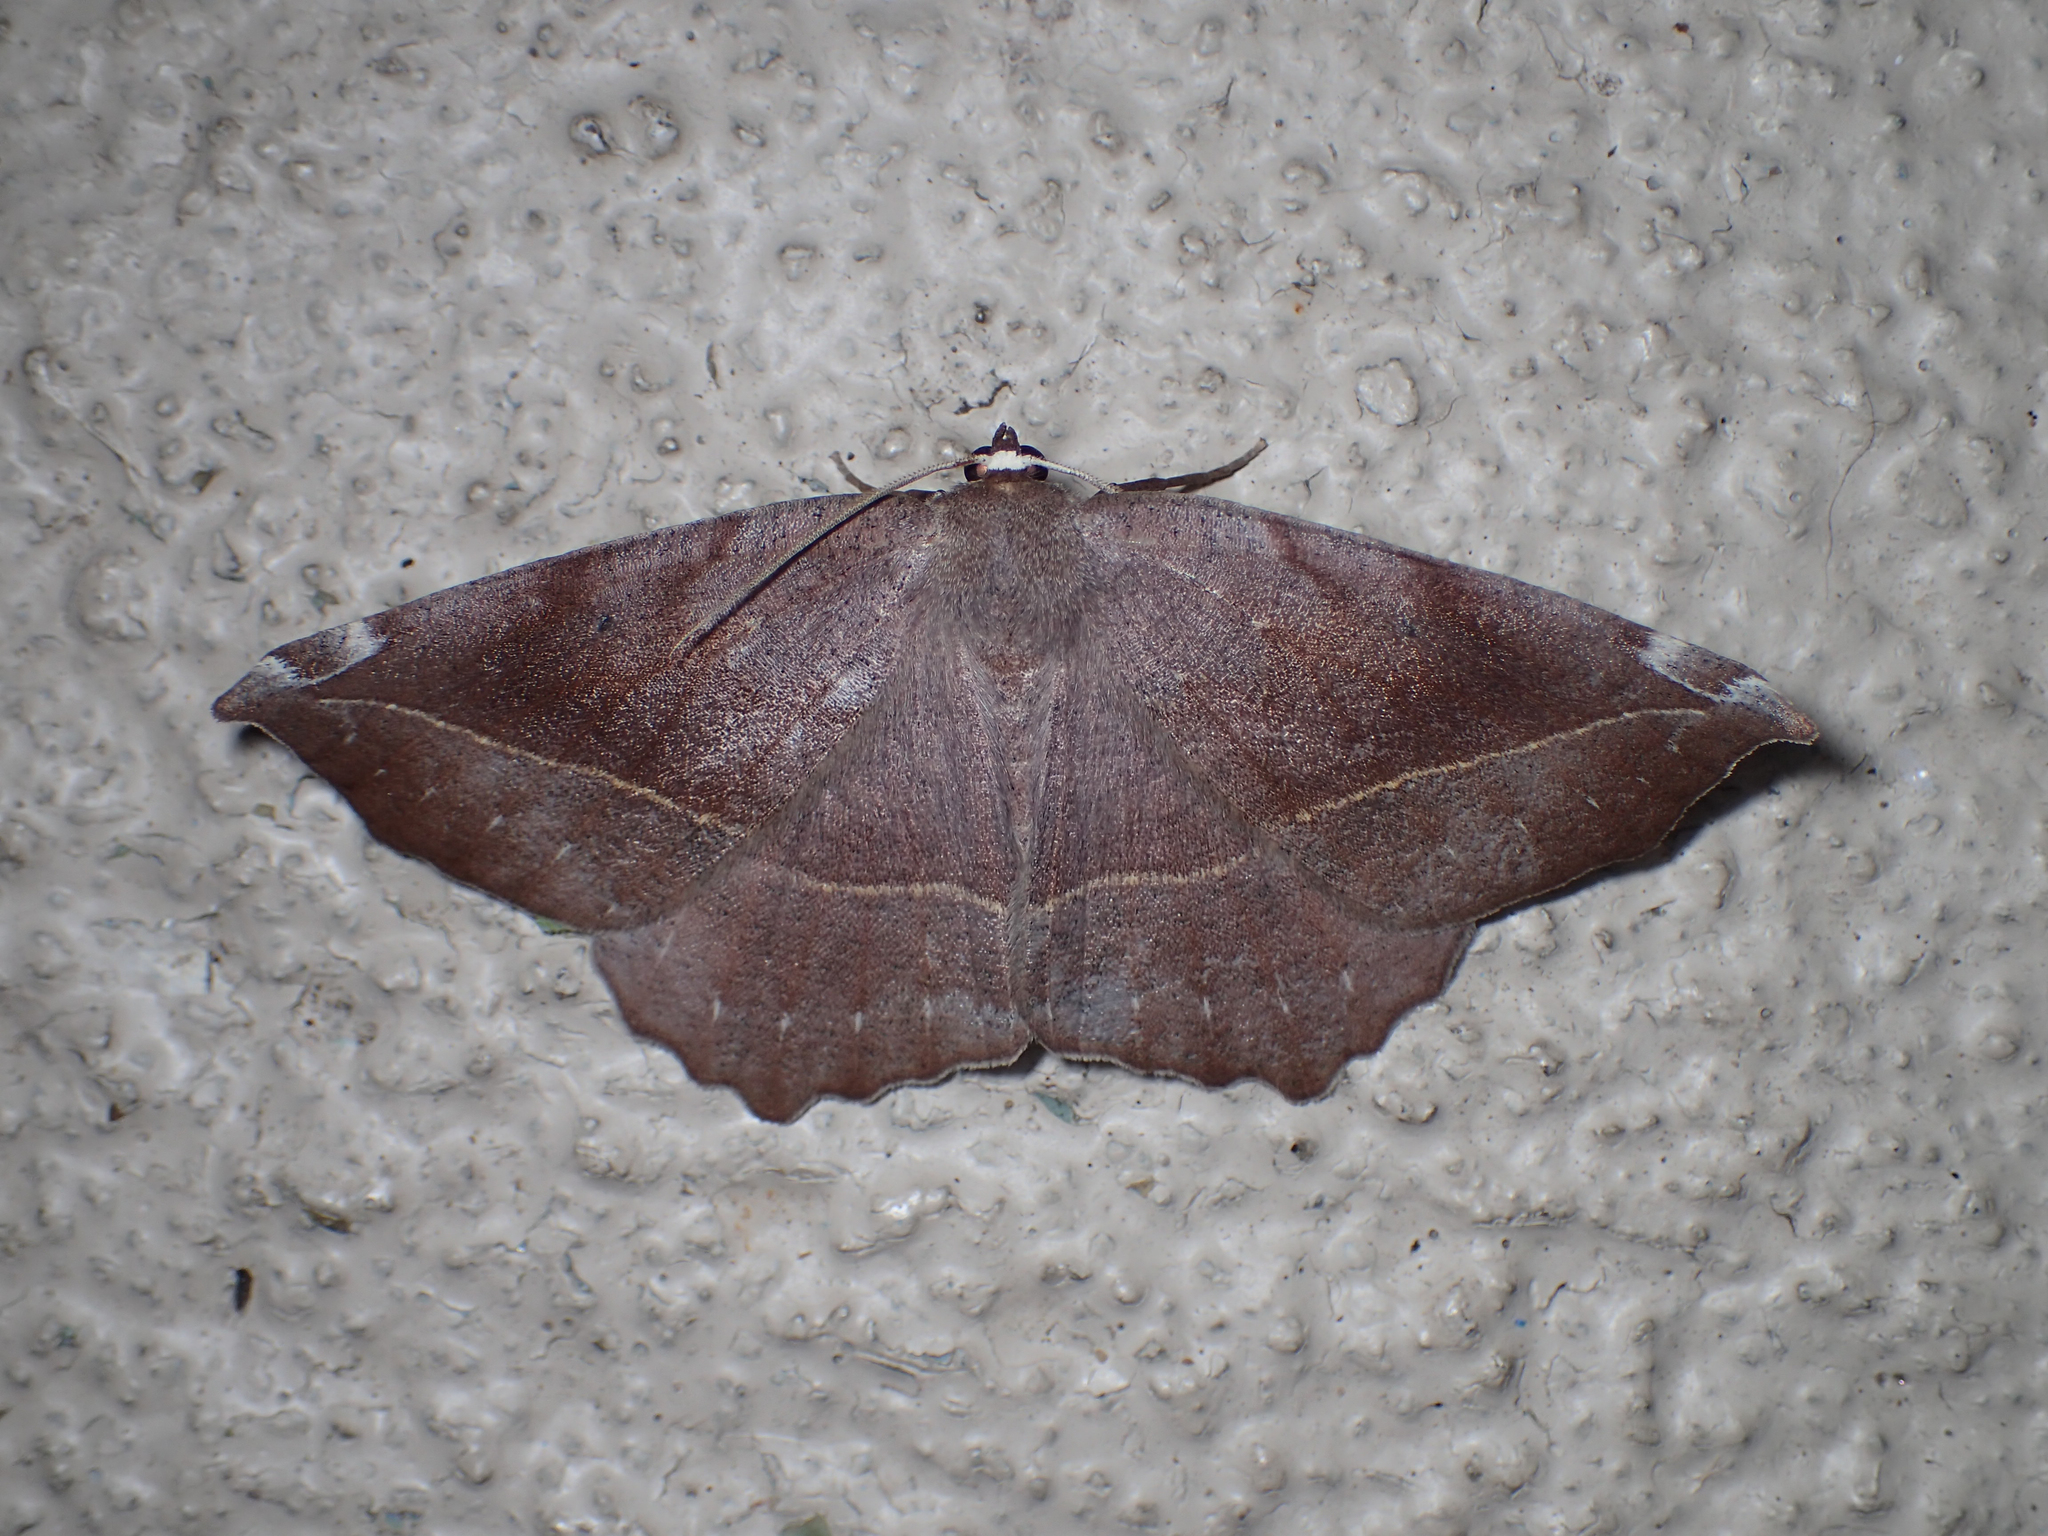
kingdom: Animalia
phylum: Arthropoda
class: Insecta
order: Lepidoptera
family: Geometridae
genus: Eutrapela
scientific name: Eutrapela clemataria
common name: Curved-toothed geometer
